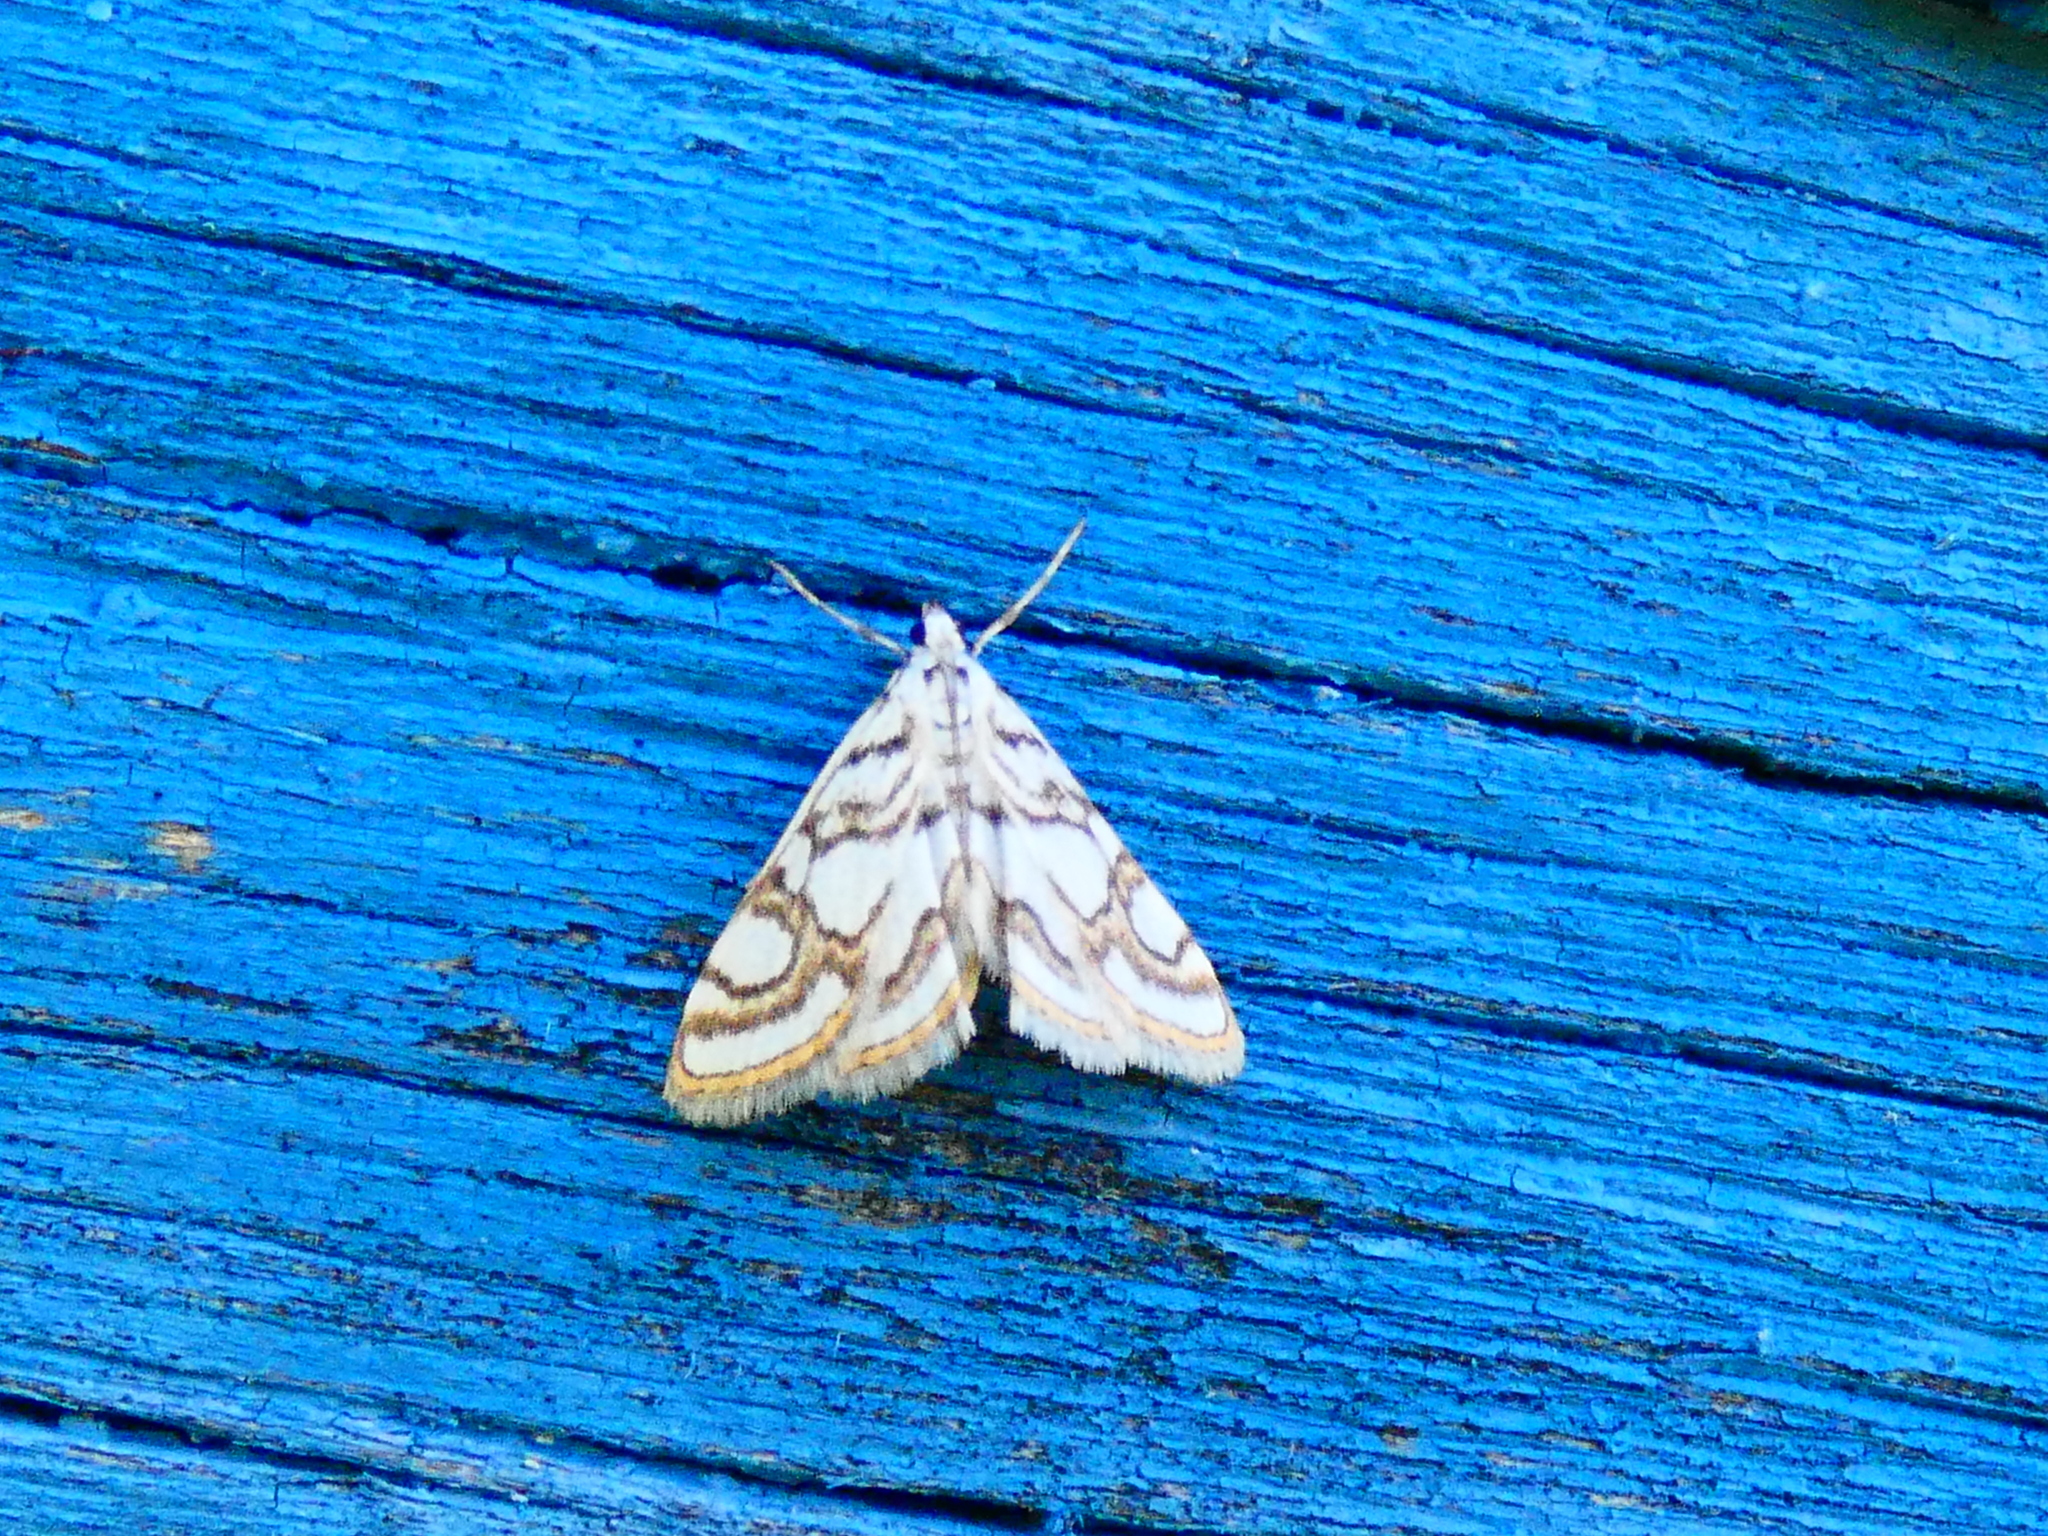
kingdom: Animalia
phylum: Arthropoda
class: Insecta
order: Lepidoptera
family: Crambidae
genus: Nymphula
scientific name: Nymphula nitidulata
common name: Beautiful china mark
